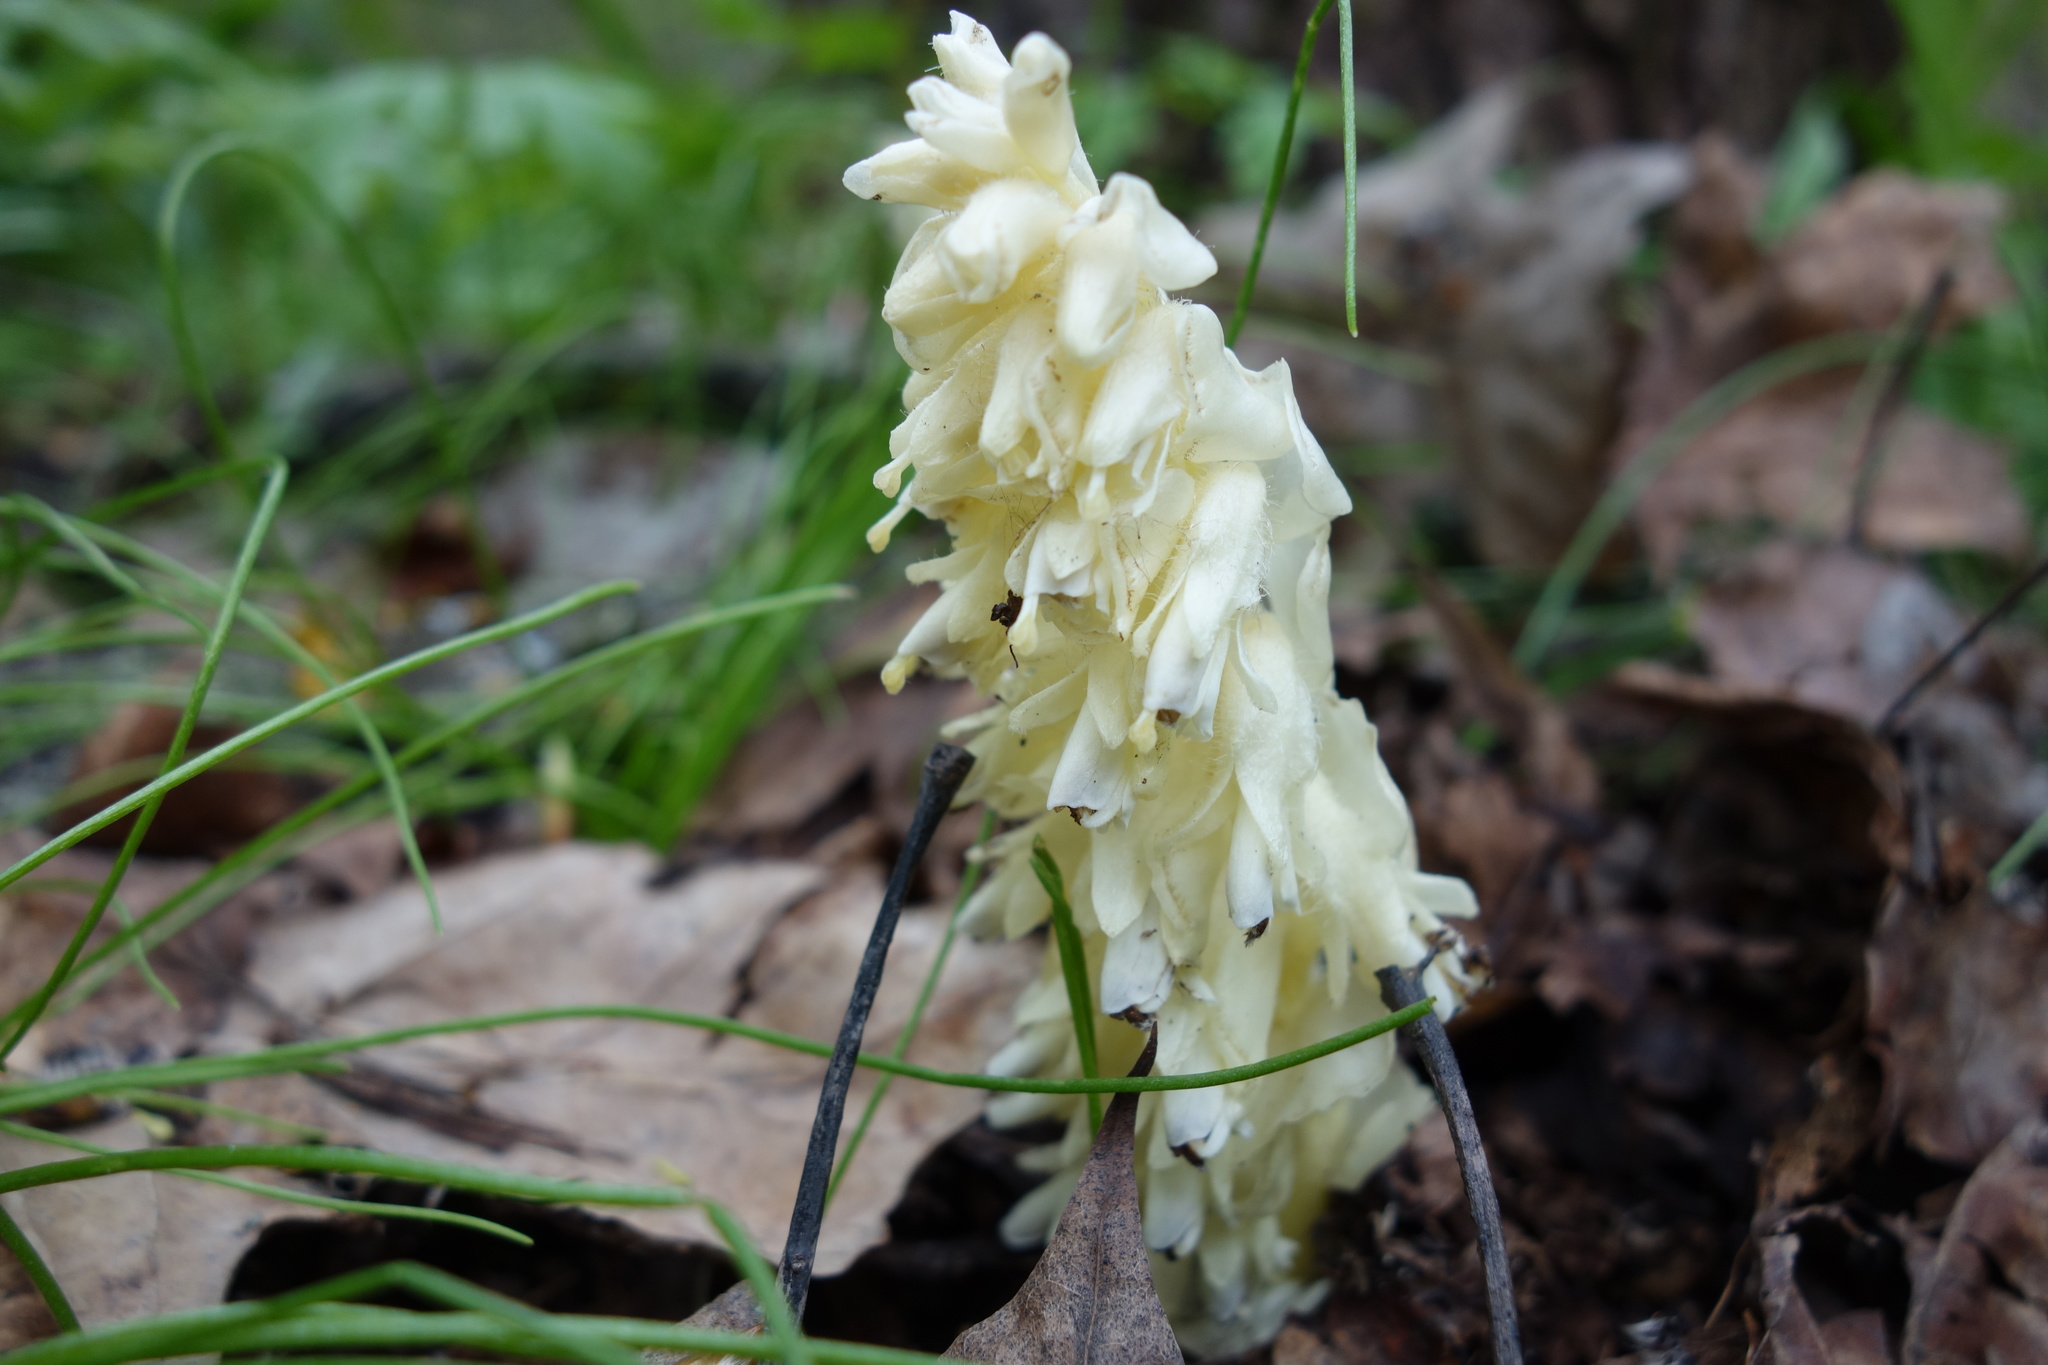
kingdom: Plantae
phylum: Tracheophyta
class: Magnoliopsida
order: Lamiales
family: Orobanchaceae
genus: Lathraea
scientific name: Lathraea squamaria
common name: Toothwort
